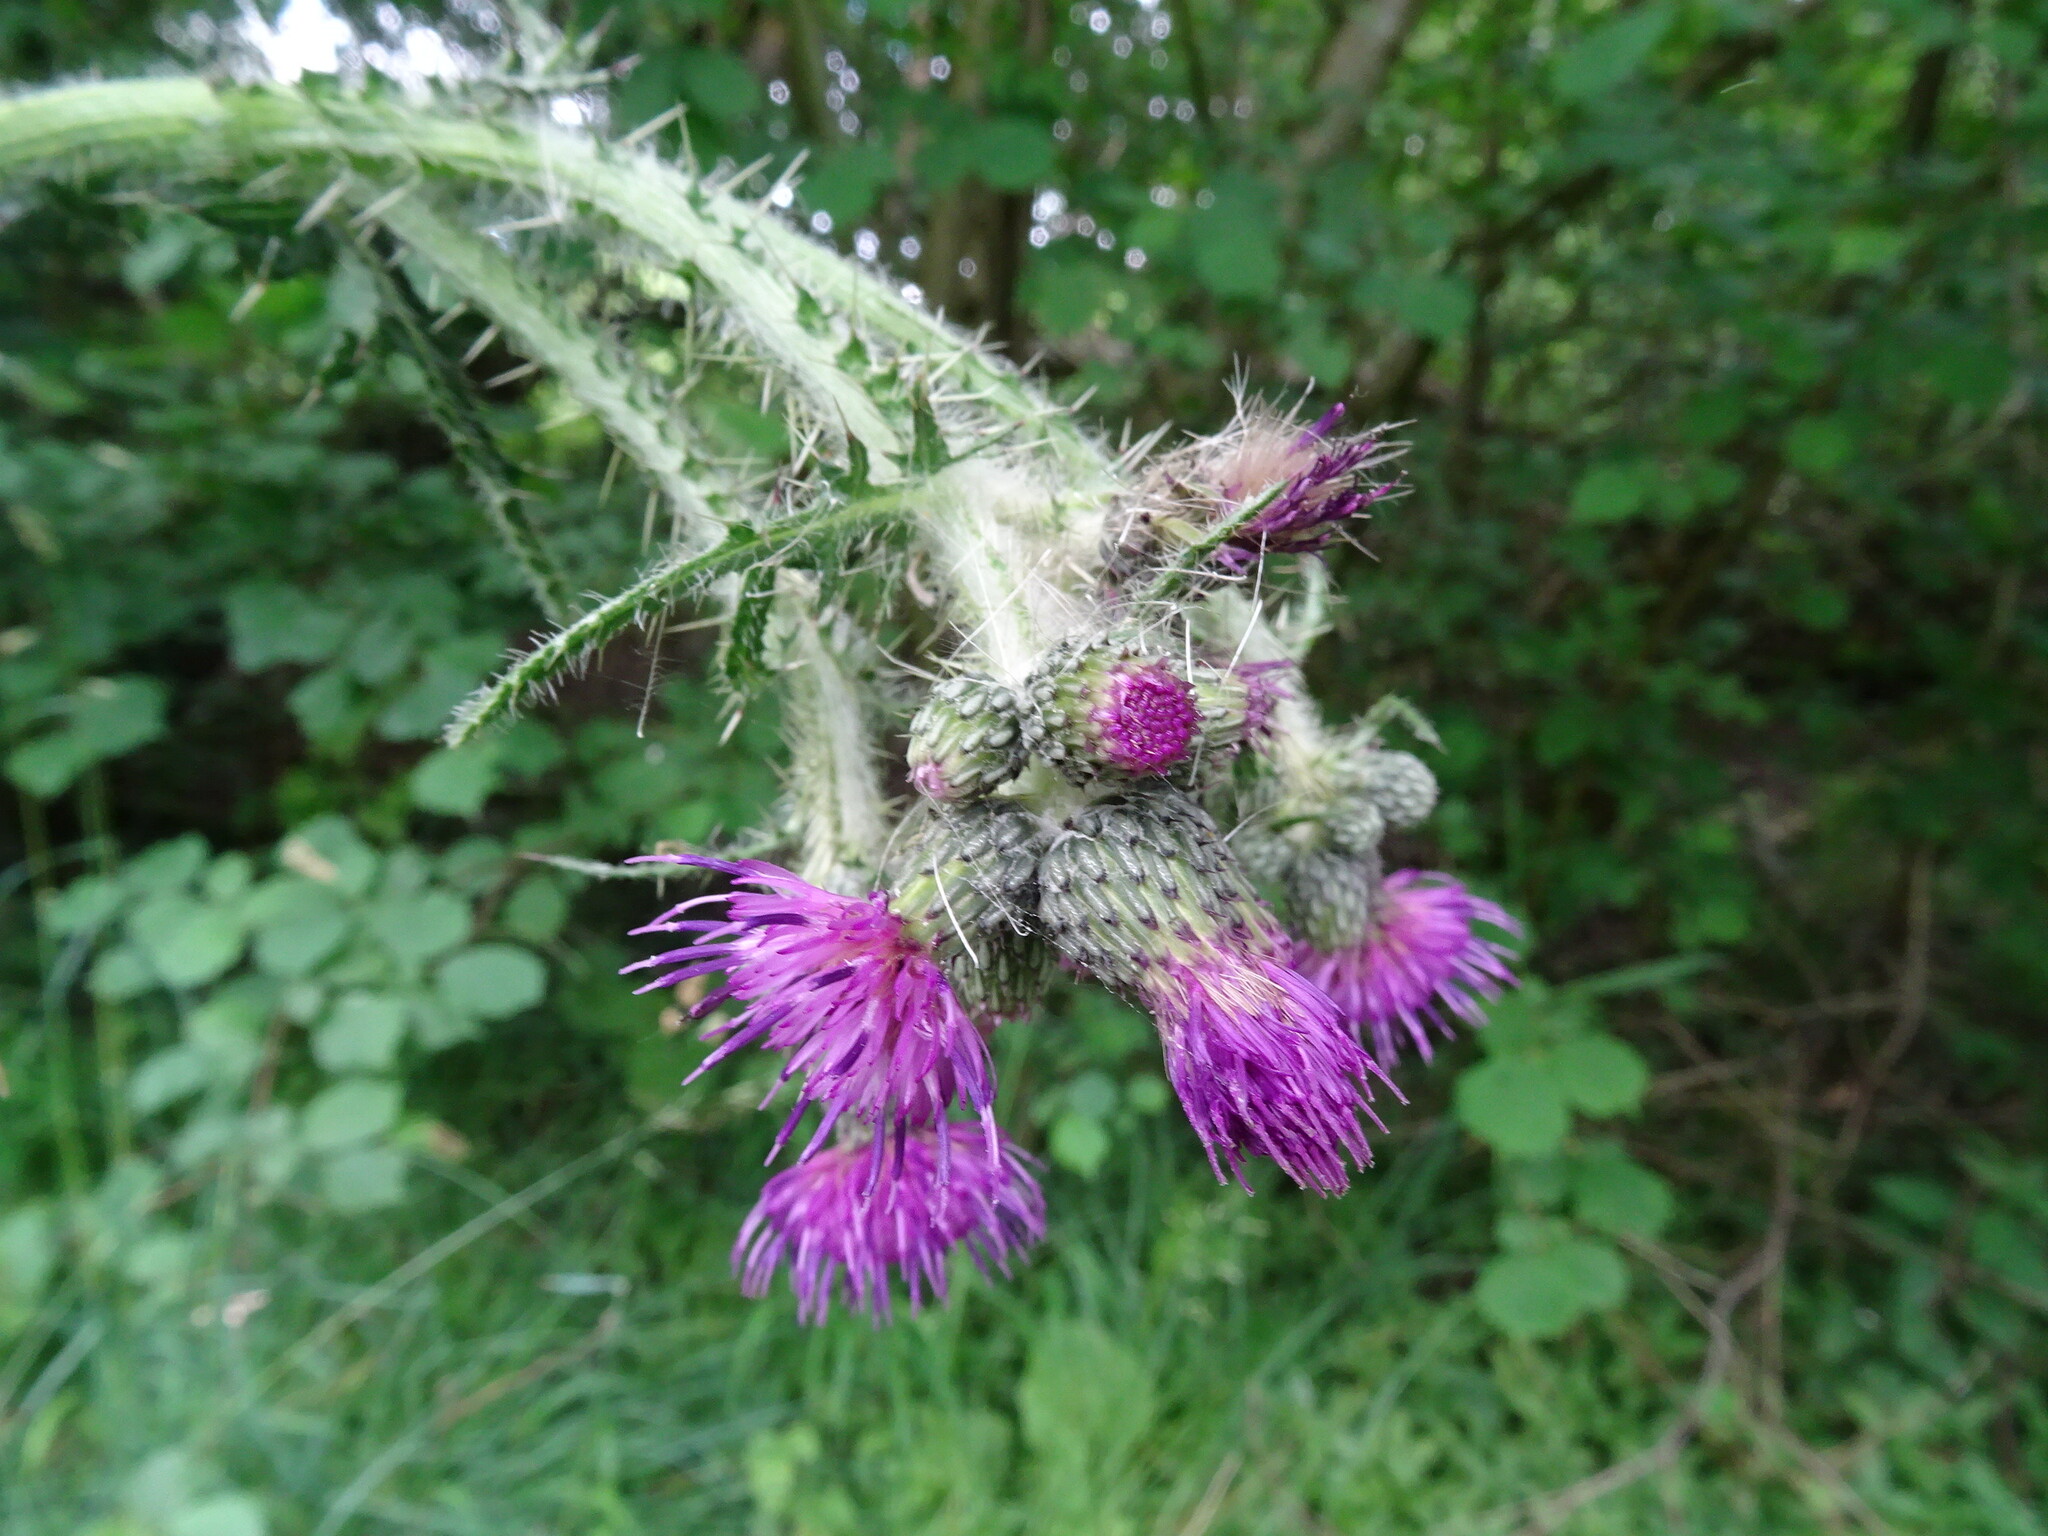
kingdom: Plantae
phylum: Tracheophyta
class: Magnoliopsida
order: Asterales
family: Asteraceae
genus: Cirsium
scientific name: Cirsium palustre
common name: Marsh thistle
